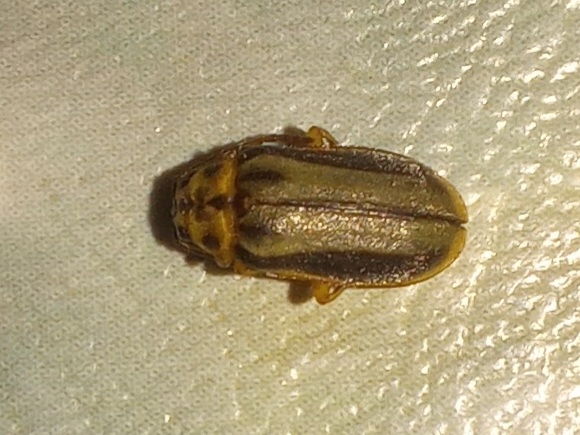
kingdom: Animalia
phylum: Arthropoda
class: Insecta
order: Coleoptera
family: Chrysomelidae
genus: Xanthogaleruca
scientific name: Xanthogaleruca luteola
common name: Elm leaf beetle
